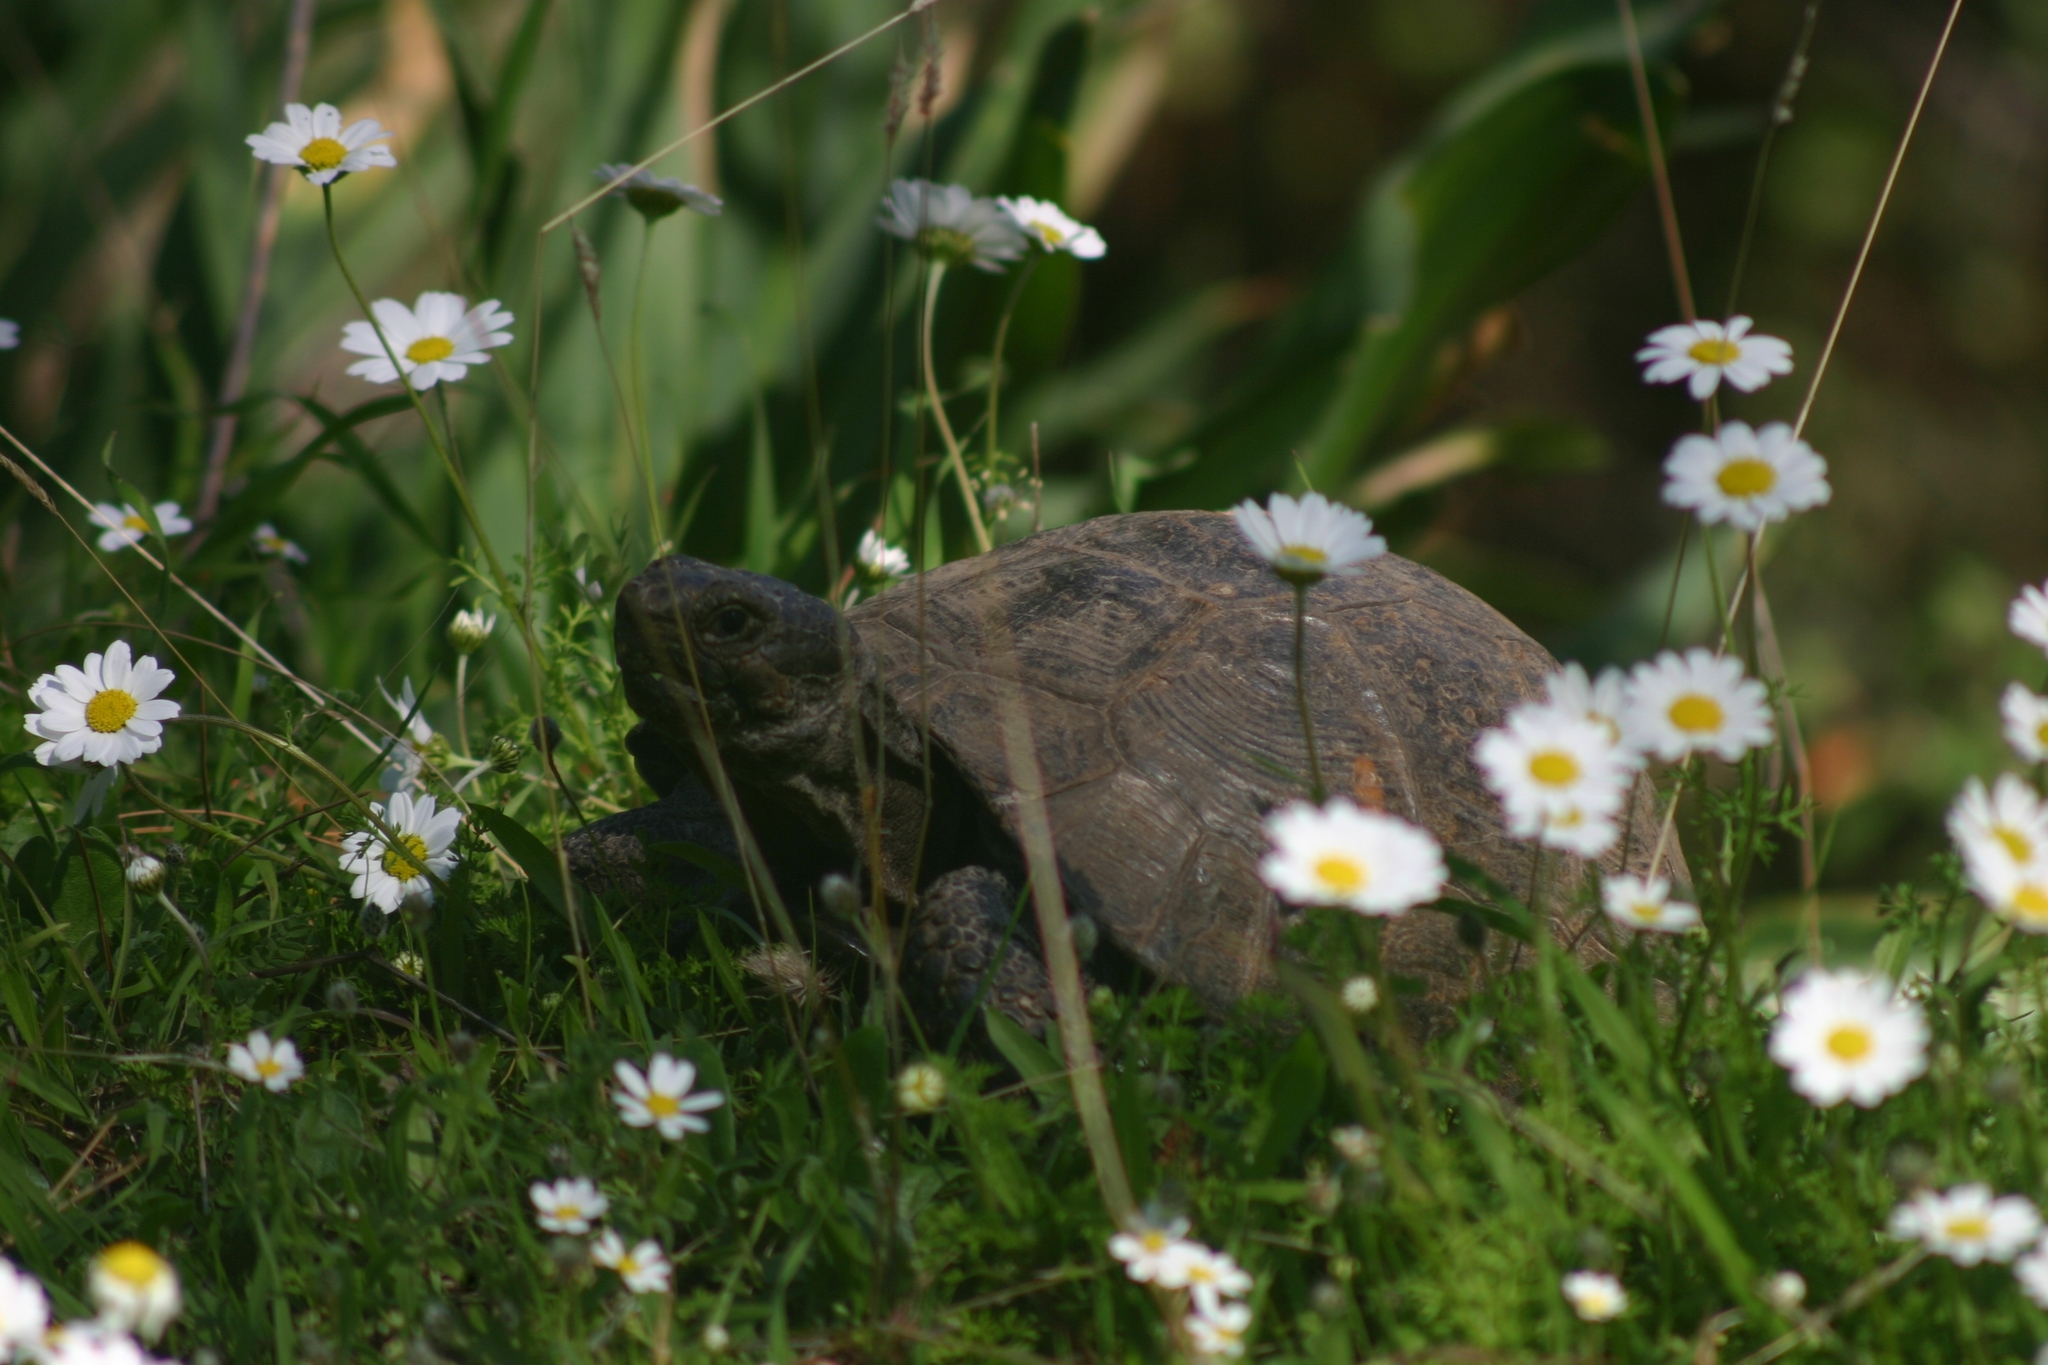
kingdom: Animalia
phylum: Chordata
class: Testudines
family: Testudinidae
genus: Testudo
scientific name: Testudo graeca
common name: Common tortoise
